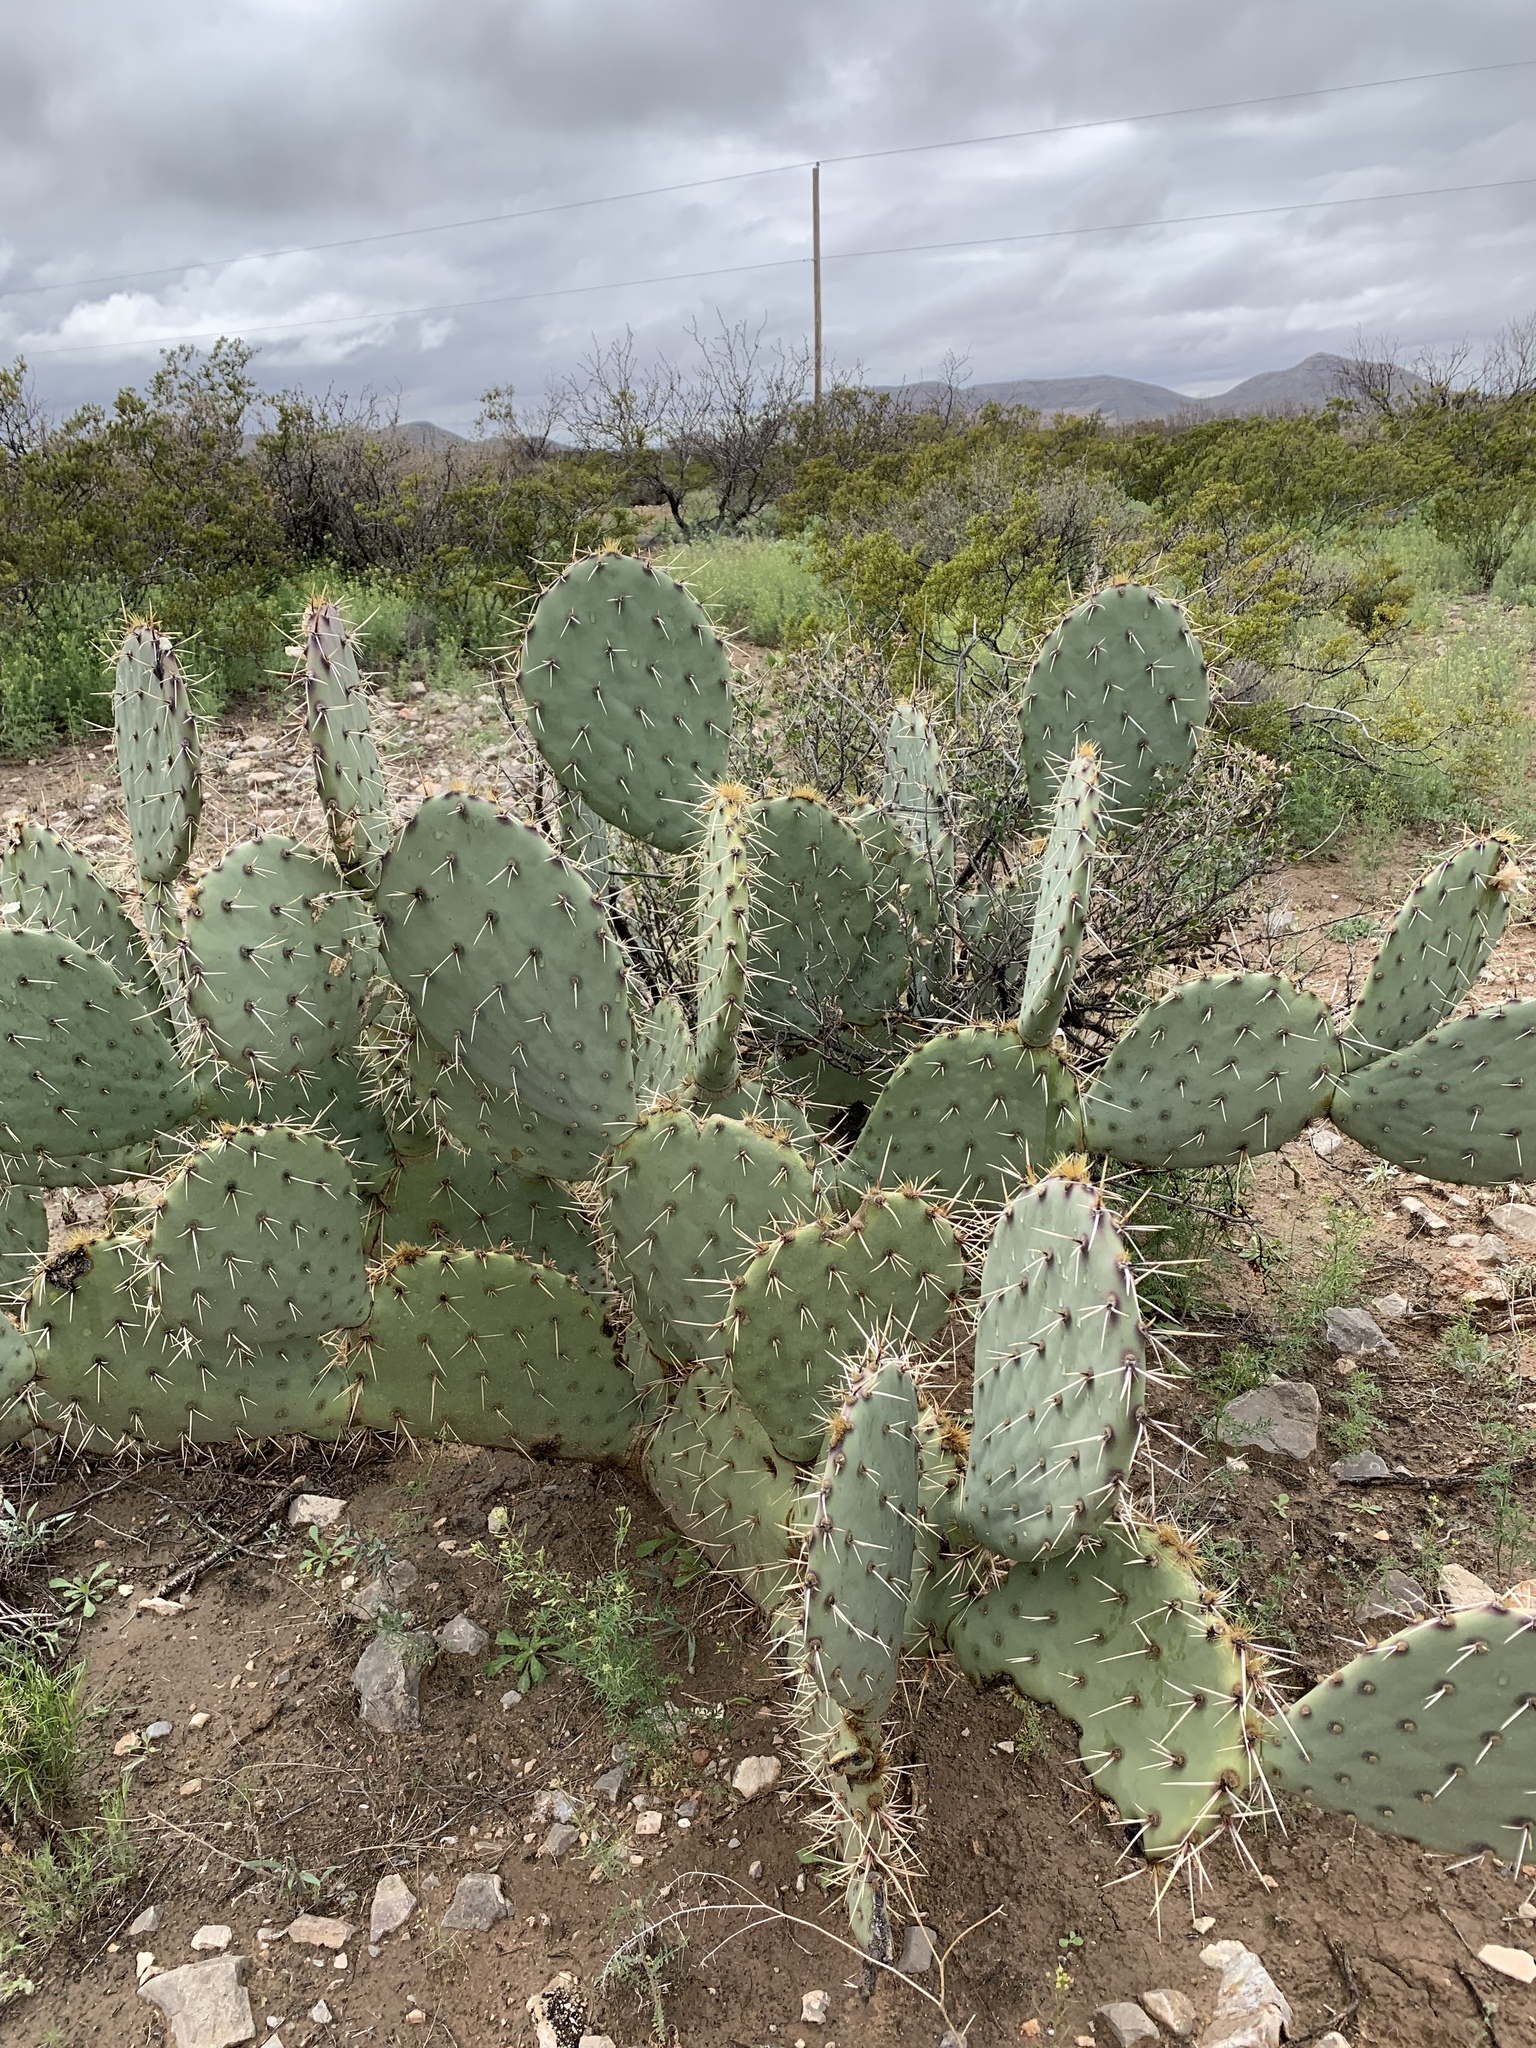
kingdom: Plantae
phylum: Tracheophyta
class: Magnoliopsida
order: Caryophyllales
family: Cactaceae
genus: Opuntia
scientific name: Opuntia engelmannii
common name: Cactus-apple
